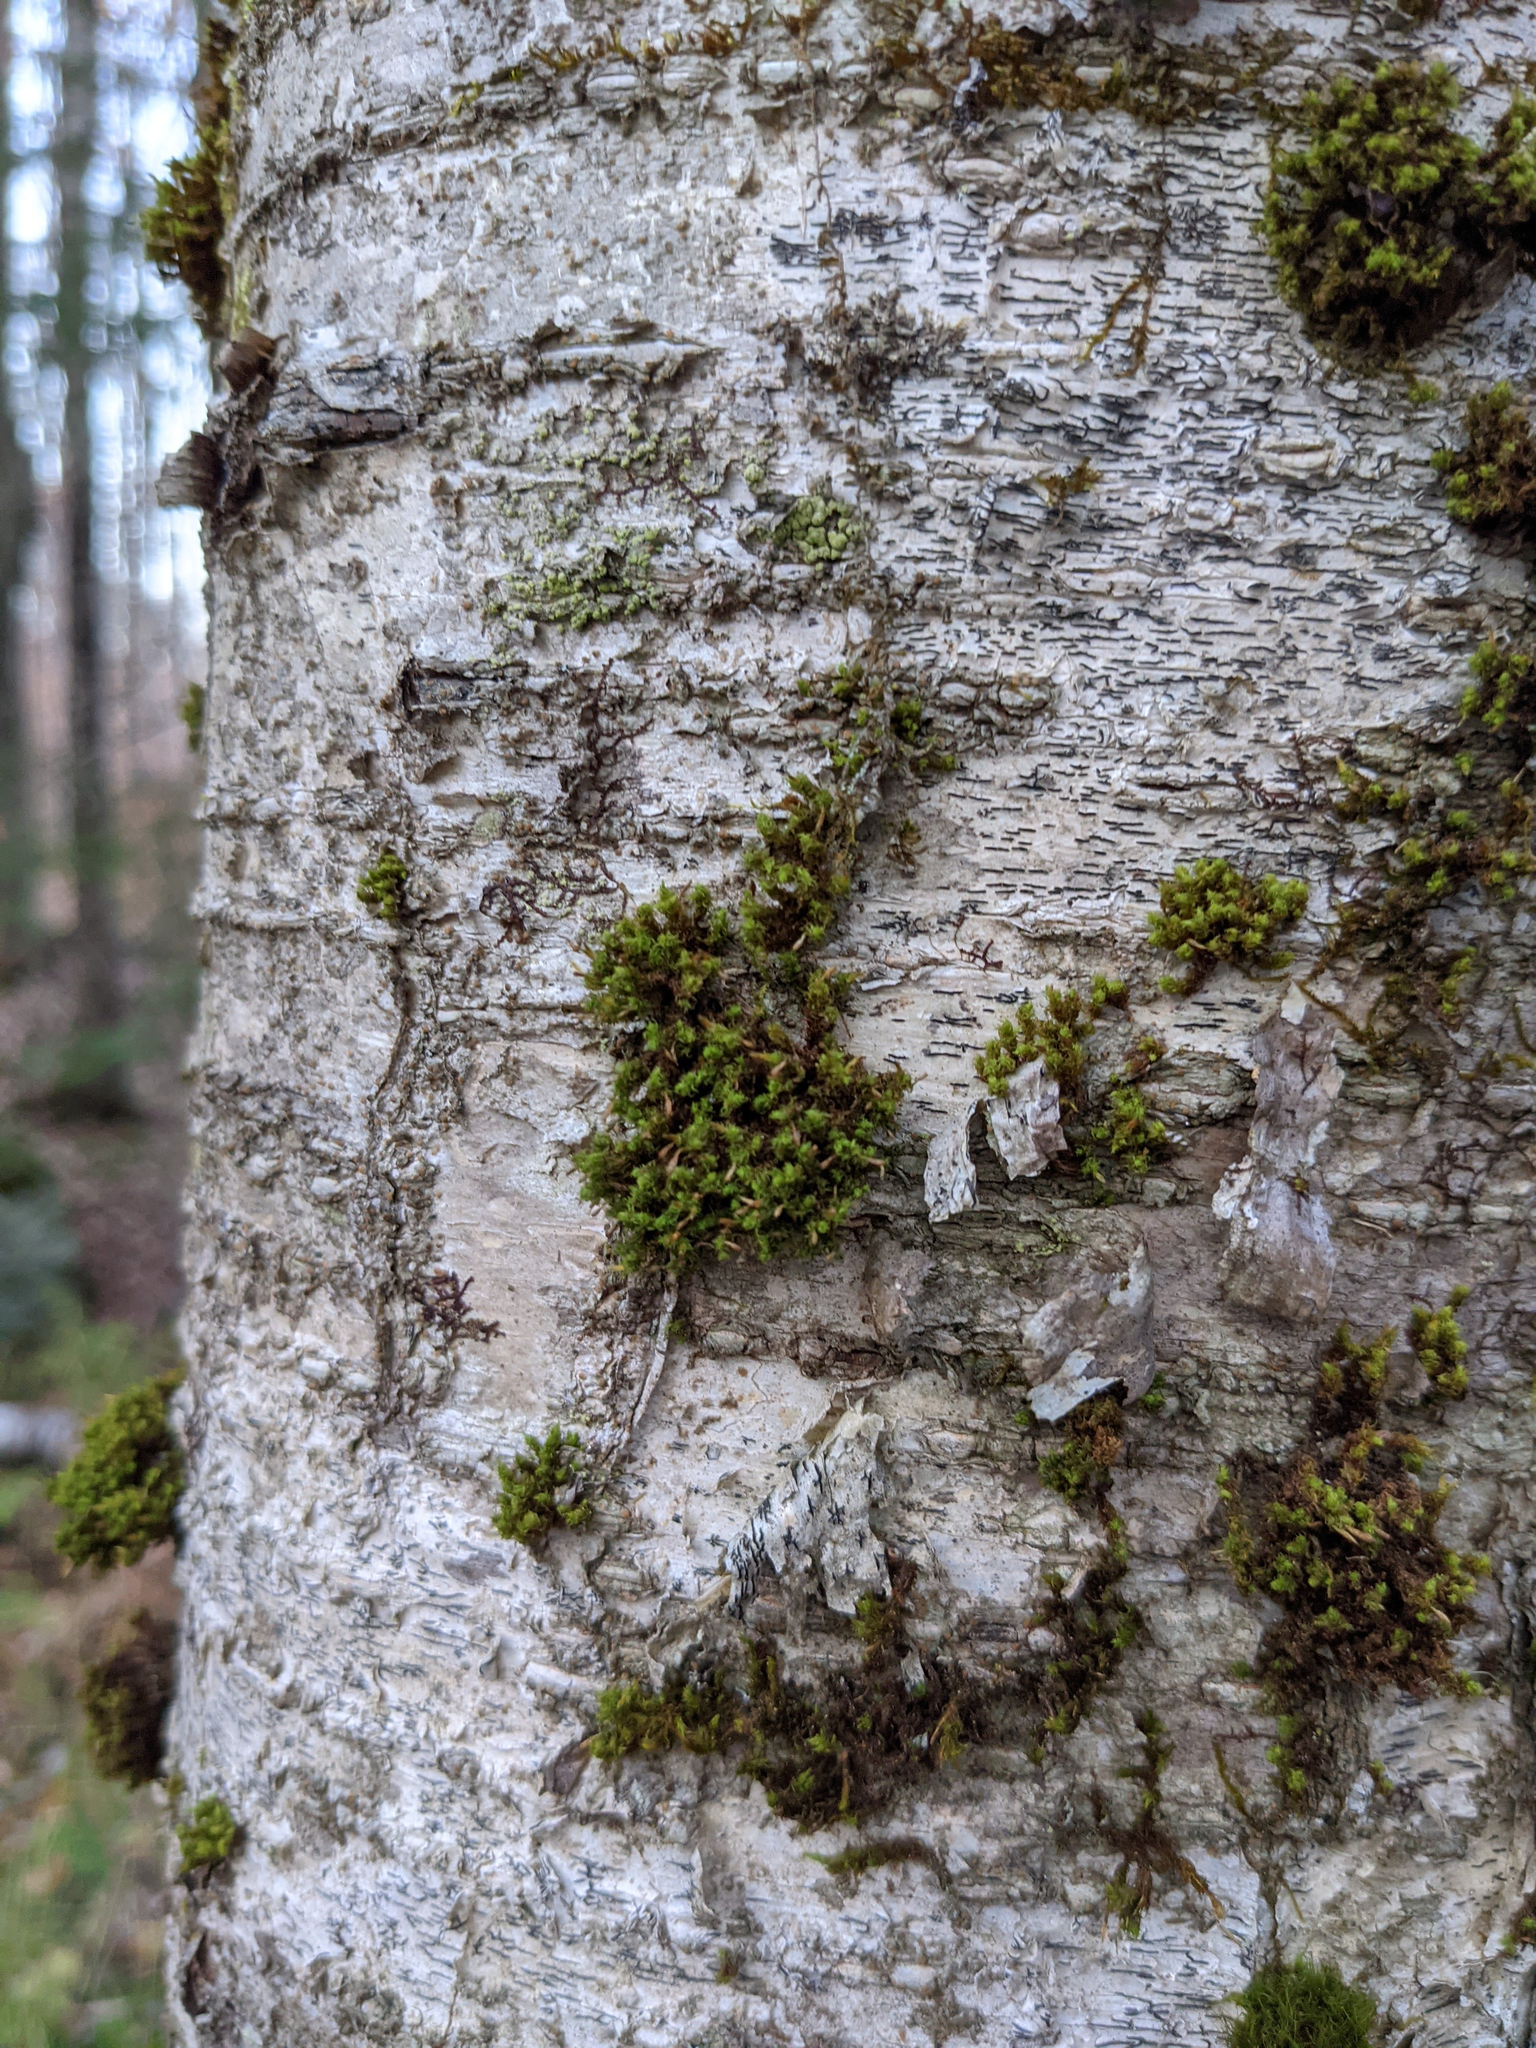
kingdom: Plantae
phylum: Bryophyta
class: Bryopsida
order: Orthotrichales
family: Orthotrichaceae
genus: Ulota
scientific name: Ulota crispa
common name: Crisped pincushion moss
